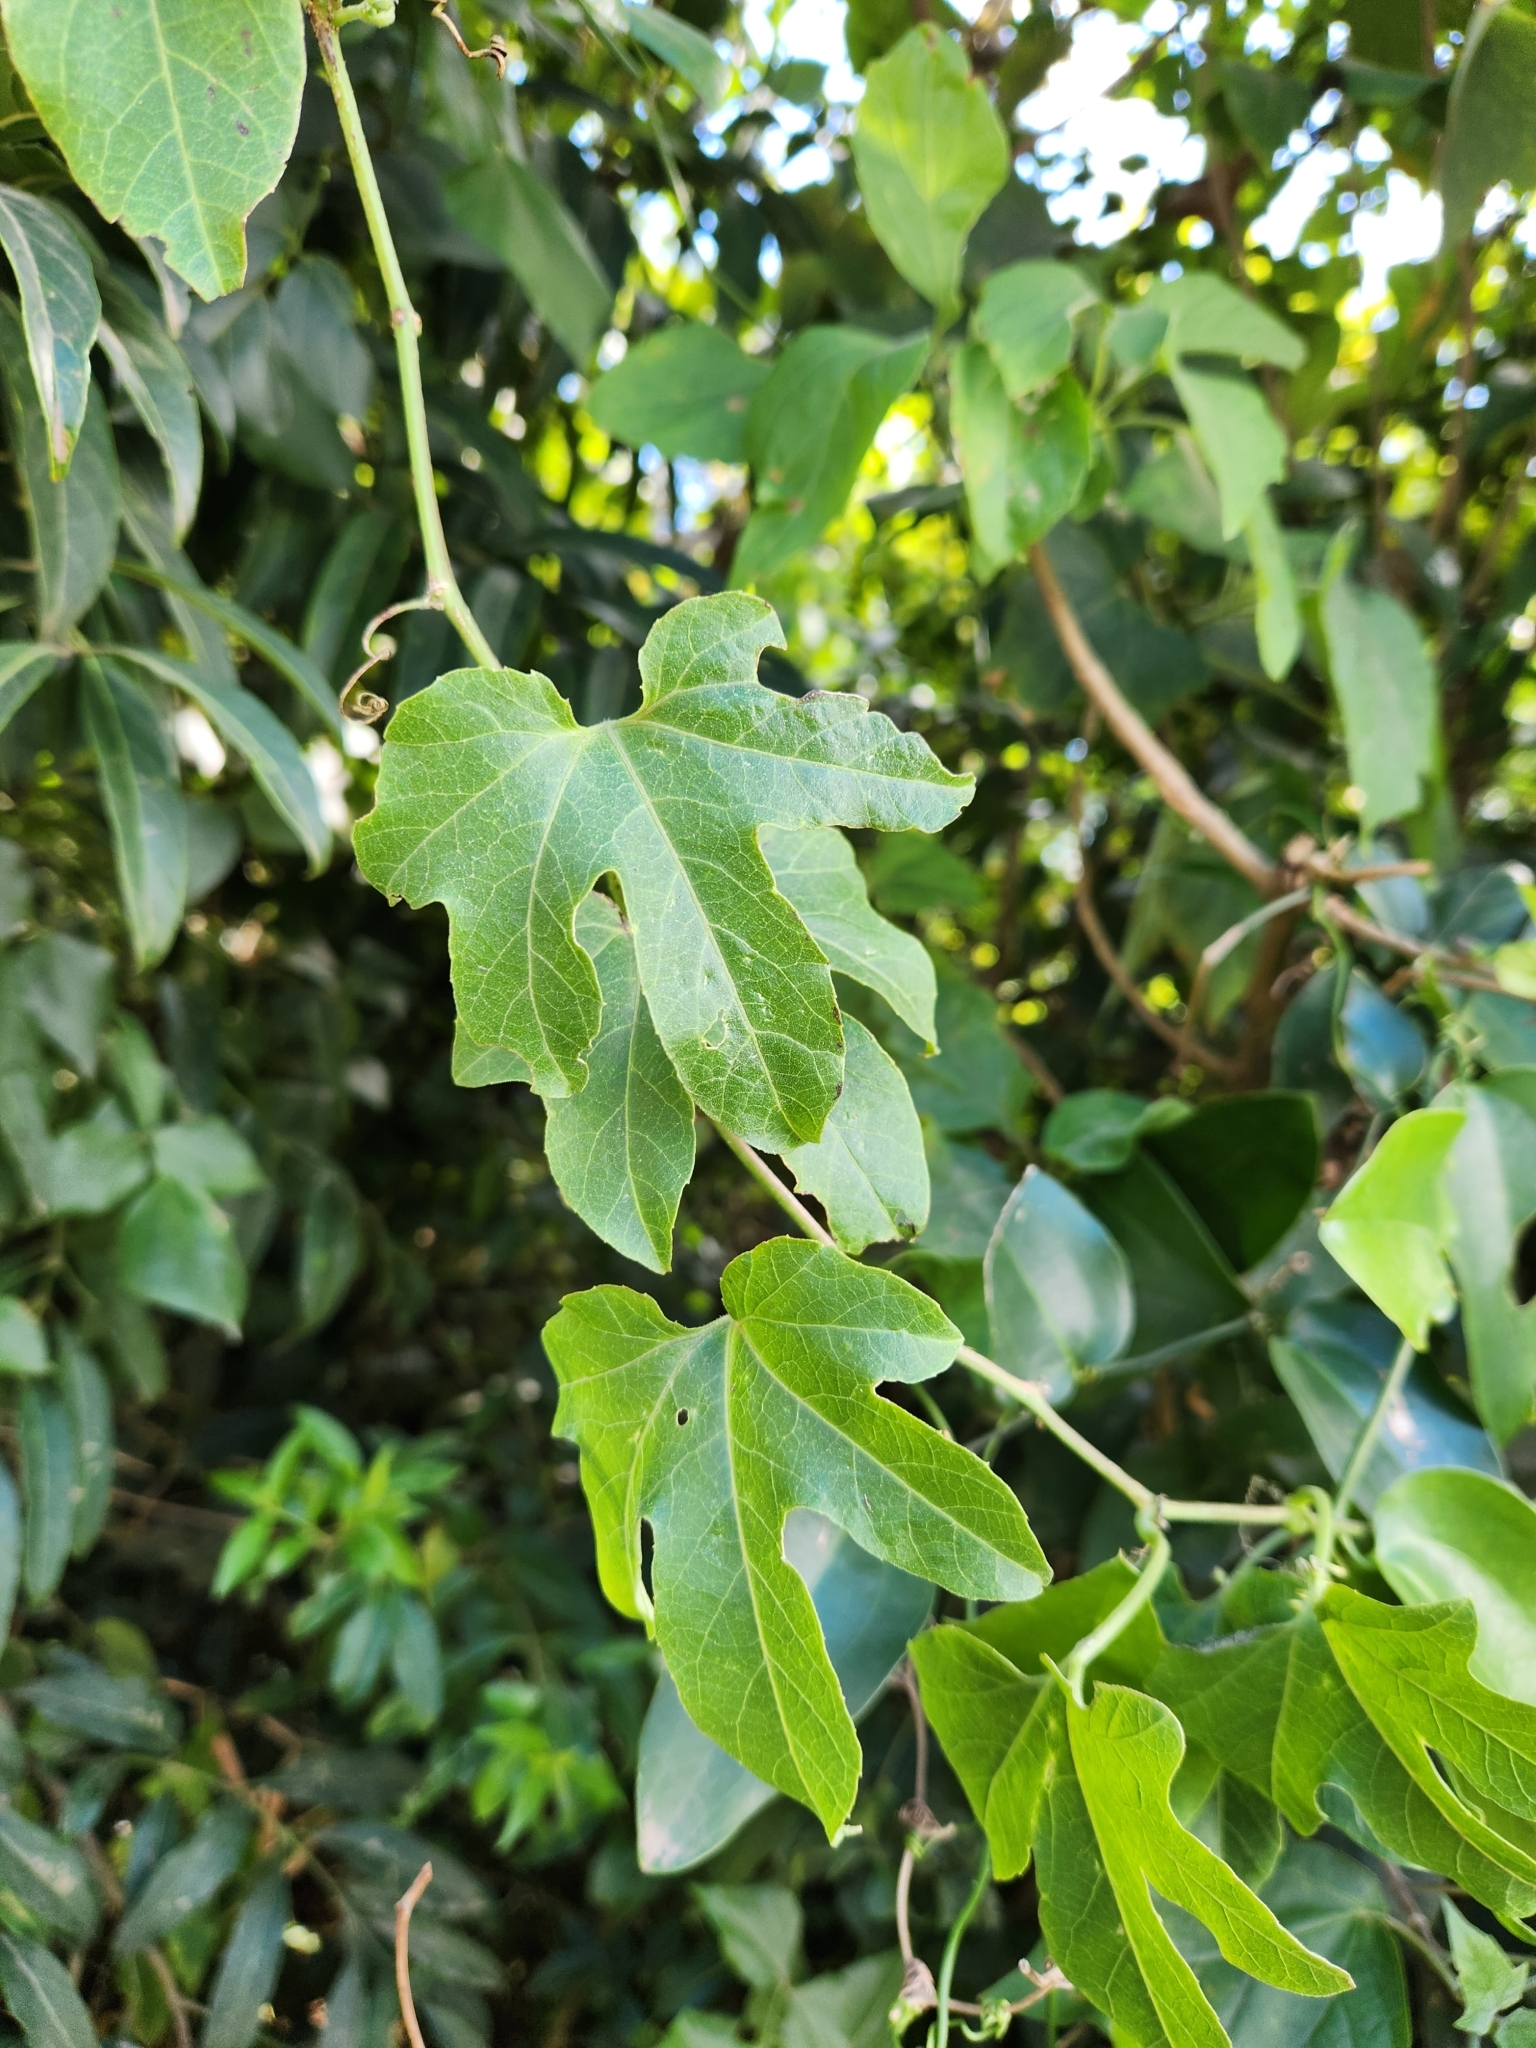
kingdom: Plantae
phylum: Tracheophyta
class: Magnoliopsida
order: Malpighiales
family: Passifloraceae
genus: Passiflora
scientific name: Passiflora adenopoda
